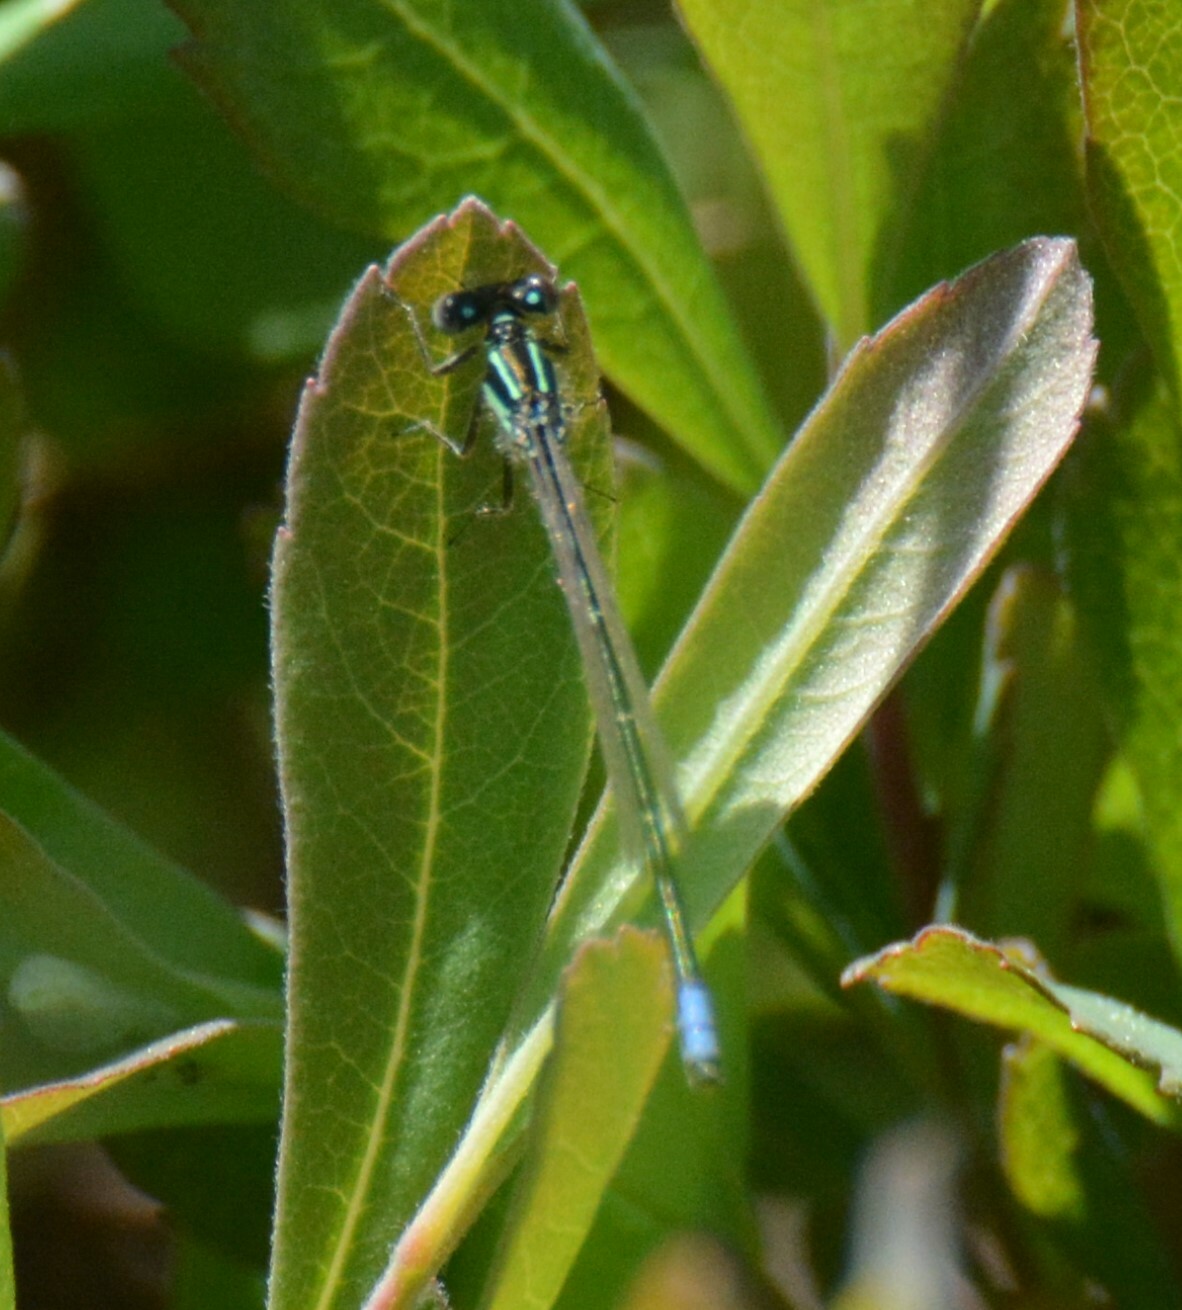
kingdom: Animalia
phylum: Arthropoda
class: Insecta
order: Odonata
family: Coenagrionidae
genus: Ischnura
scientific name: Ischnura verticalis
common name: Eastern forktail
